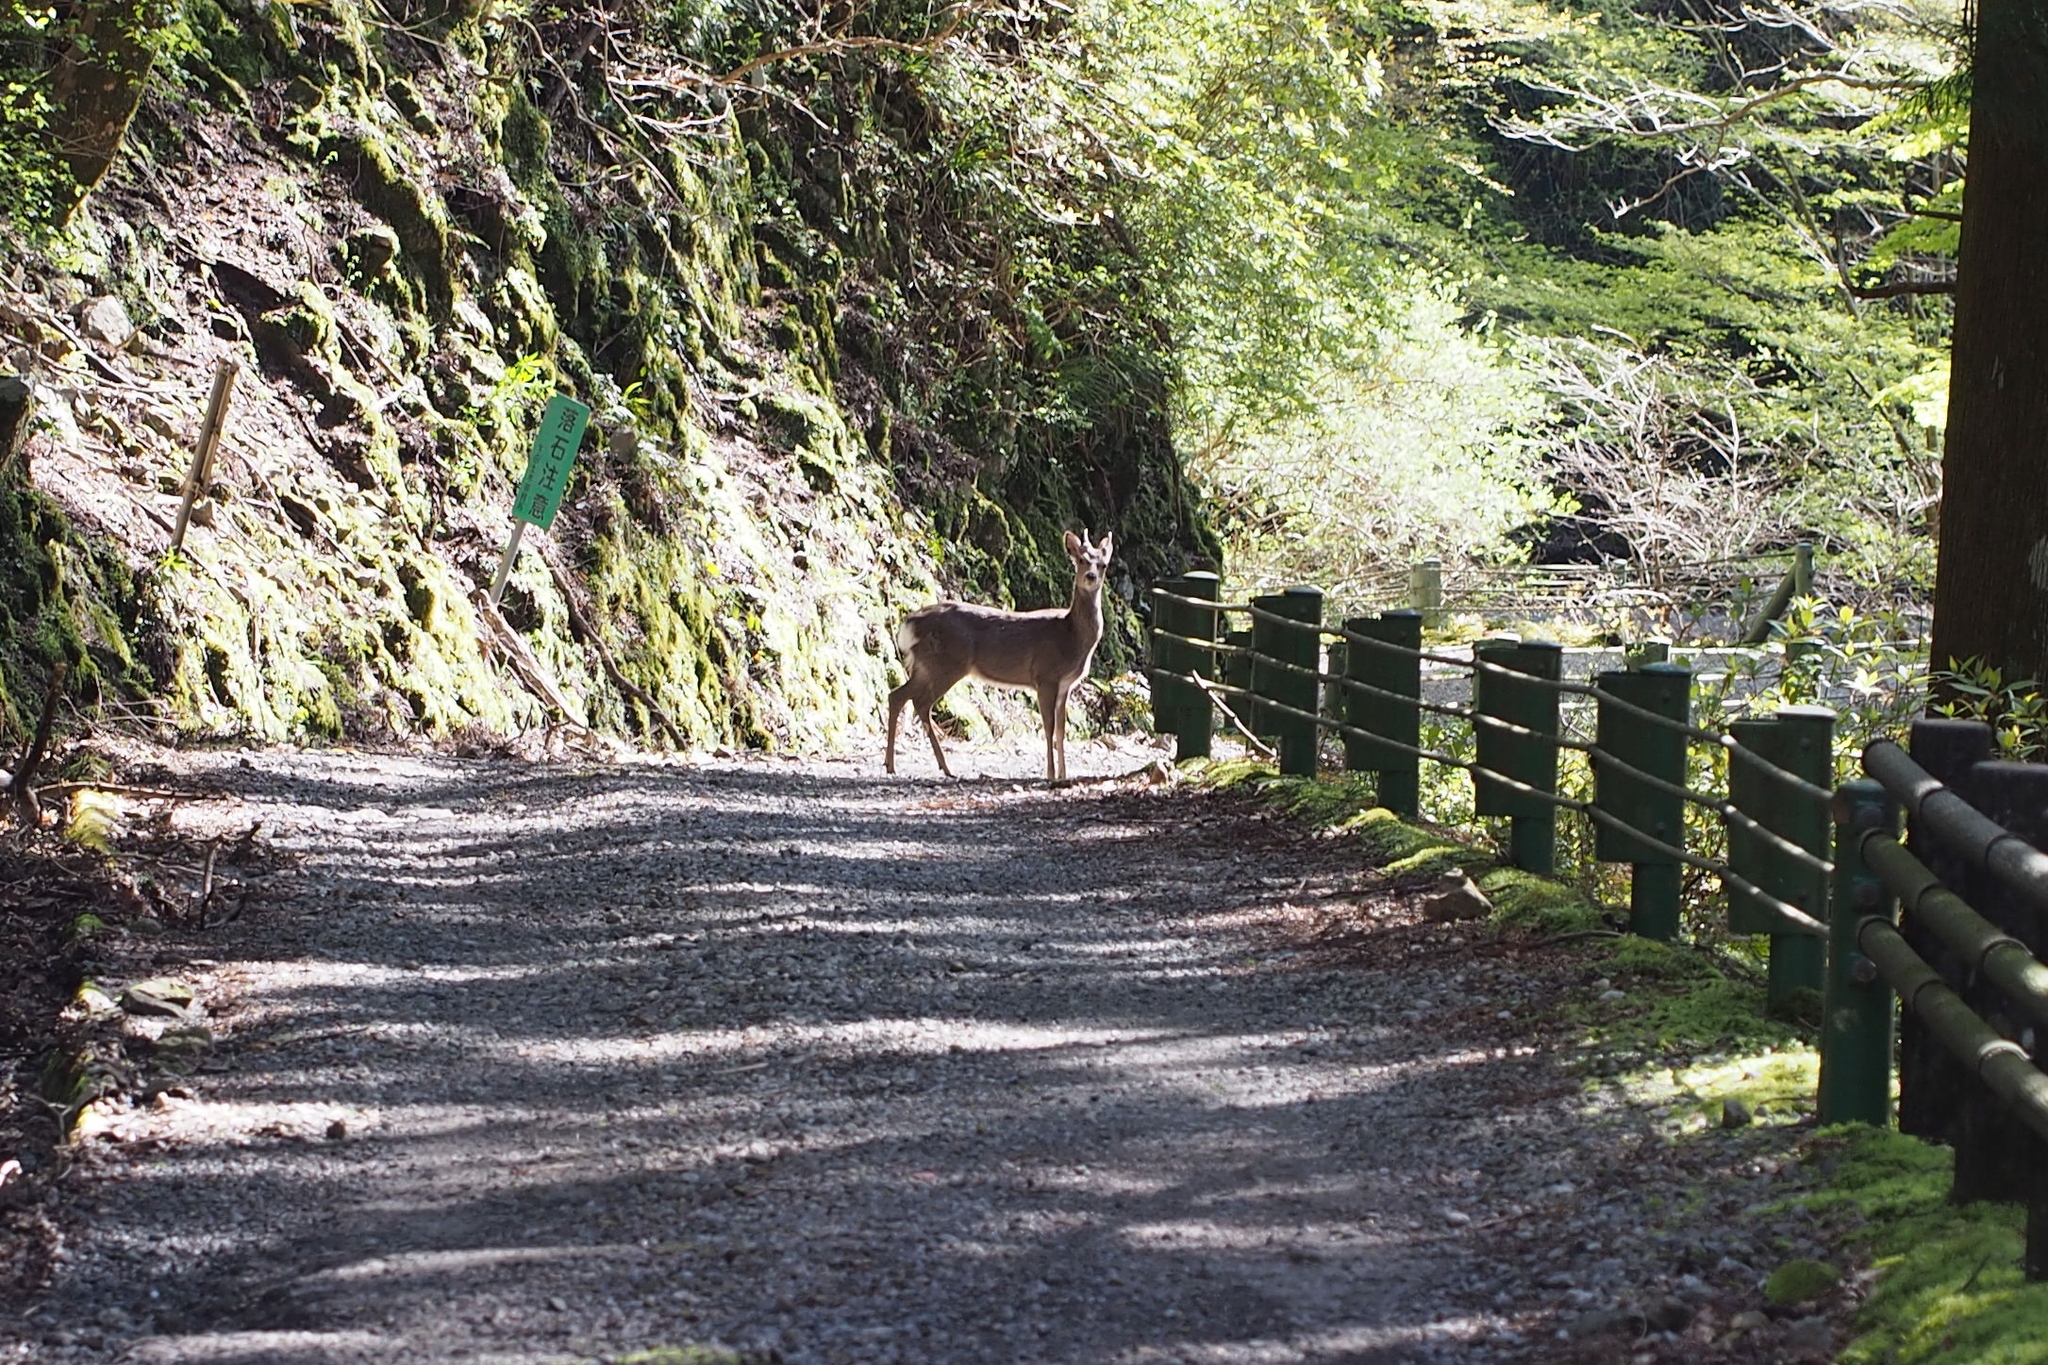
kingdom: Animalia
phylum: Chordata
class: Mammalia
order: Artiodactyla
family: Cervidae
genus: Cervus
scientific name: Cervus nippon
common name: Sika deer
